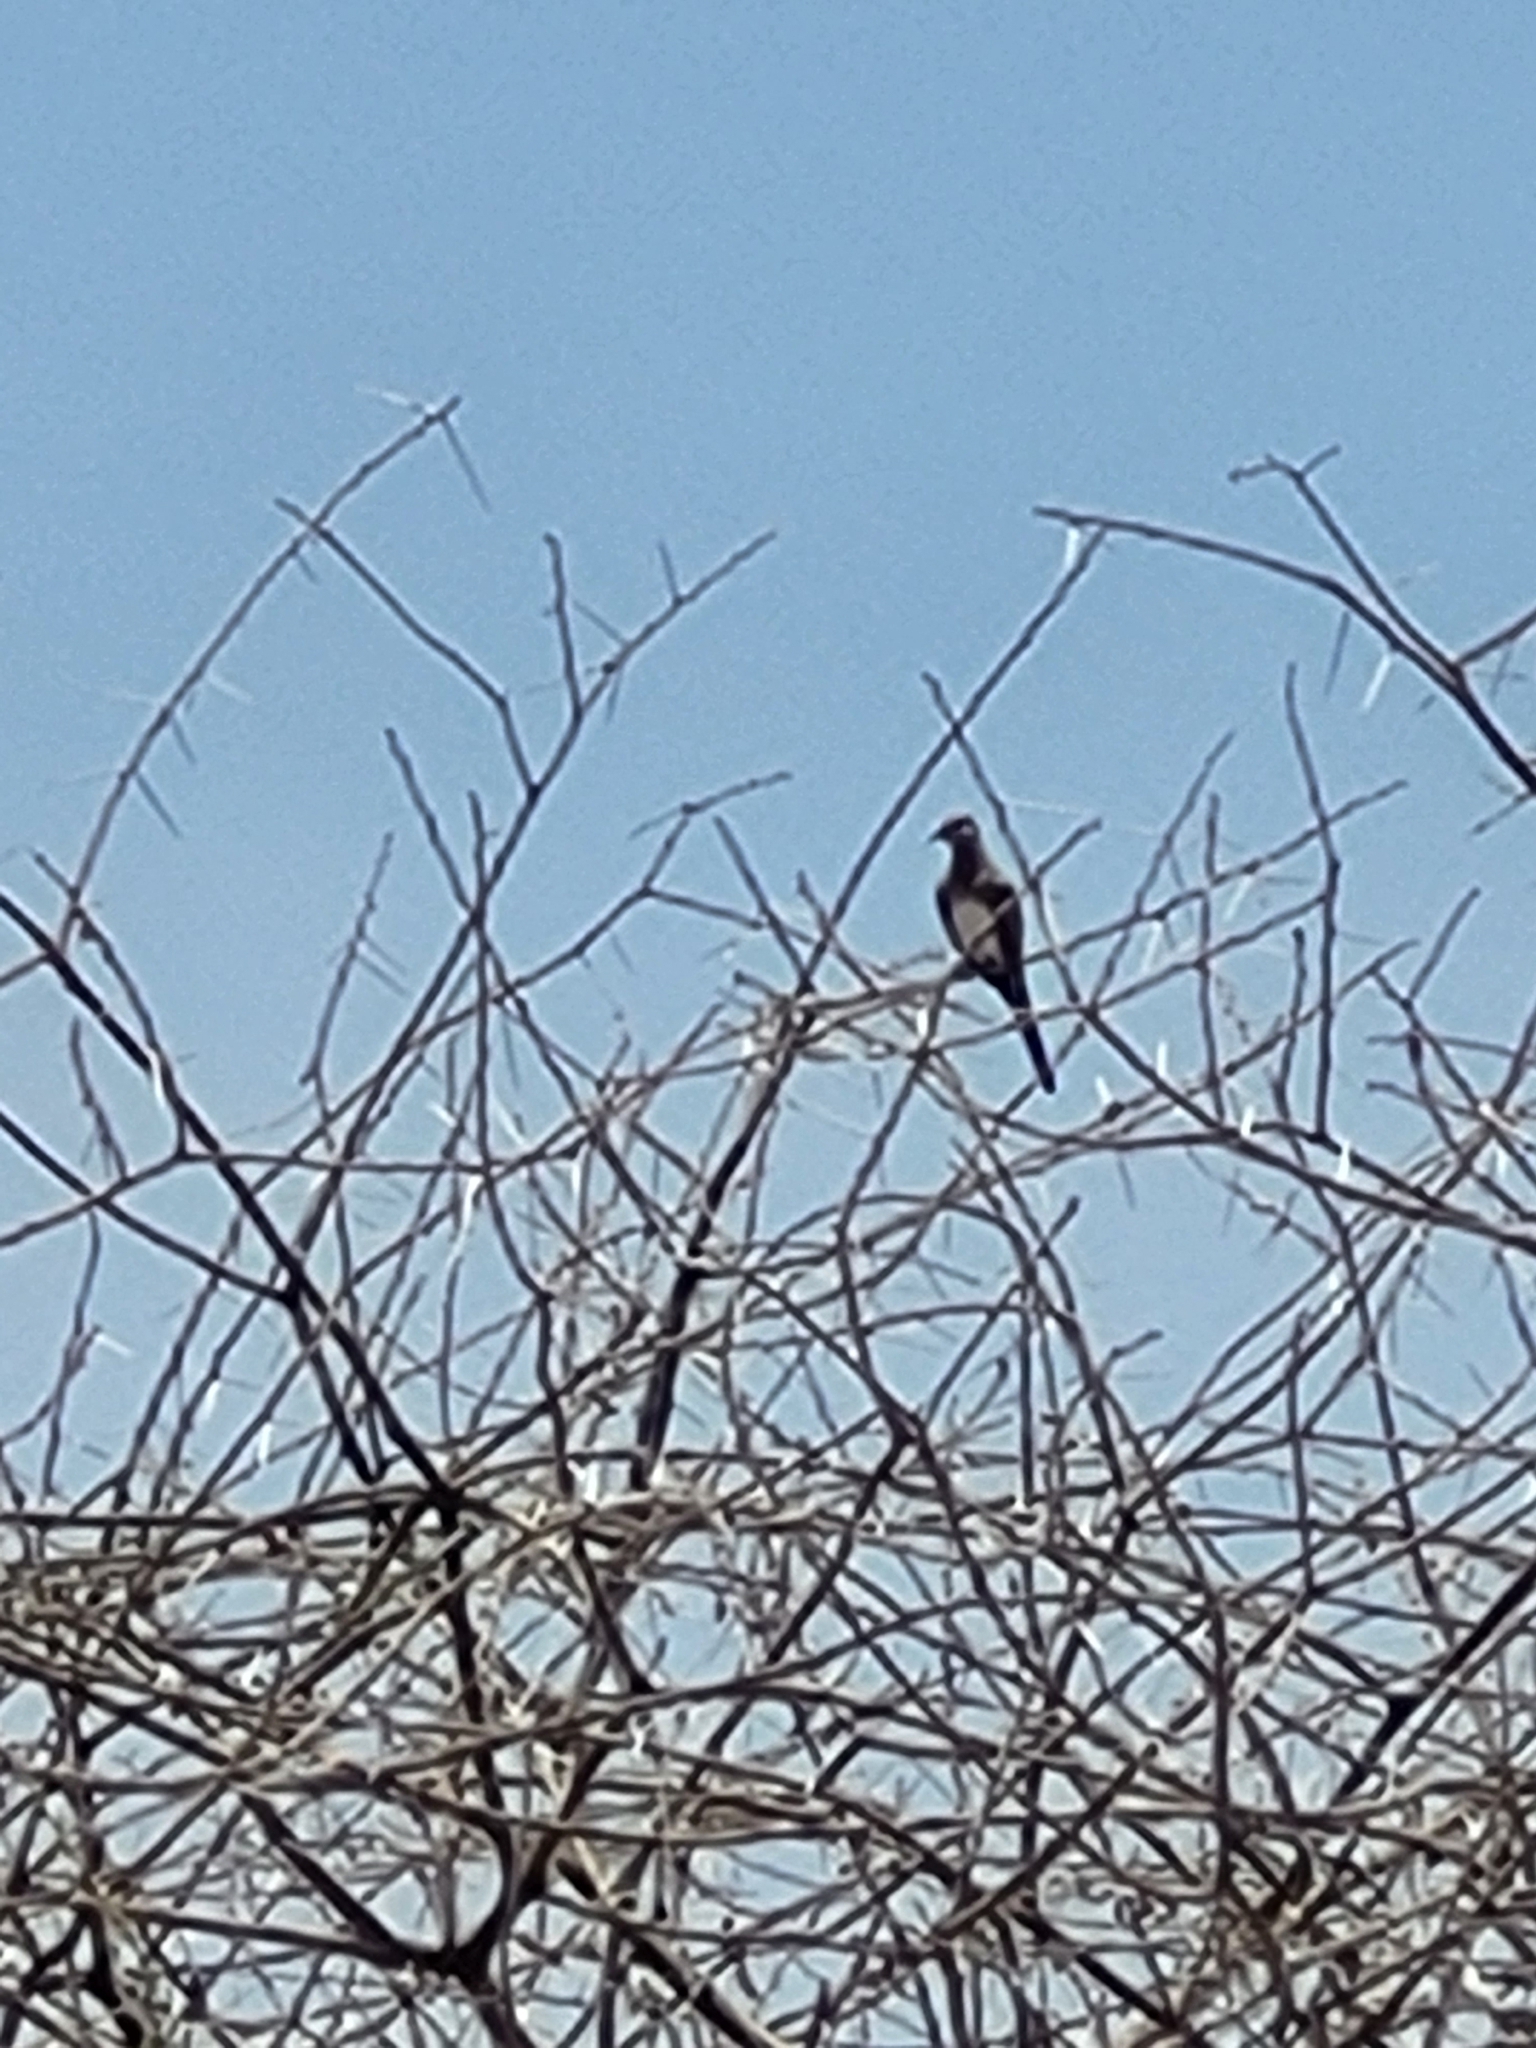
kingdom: Animalia
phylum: Chordata
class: Aves
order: Columbiformes
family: Columbidae
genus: Oena
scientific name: Oena capensis
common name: Namaqua dove
